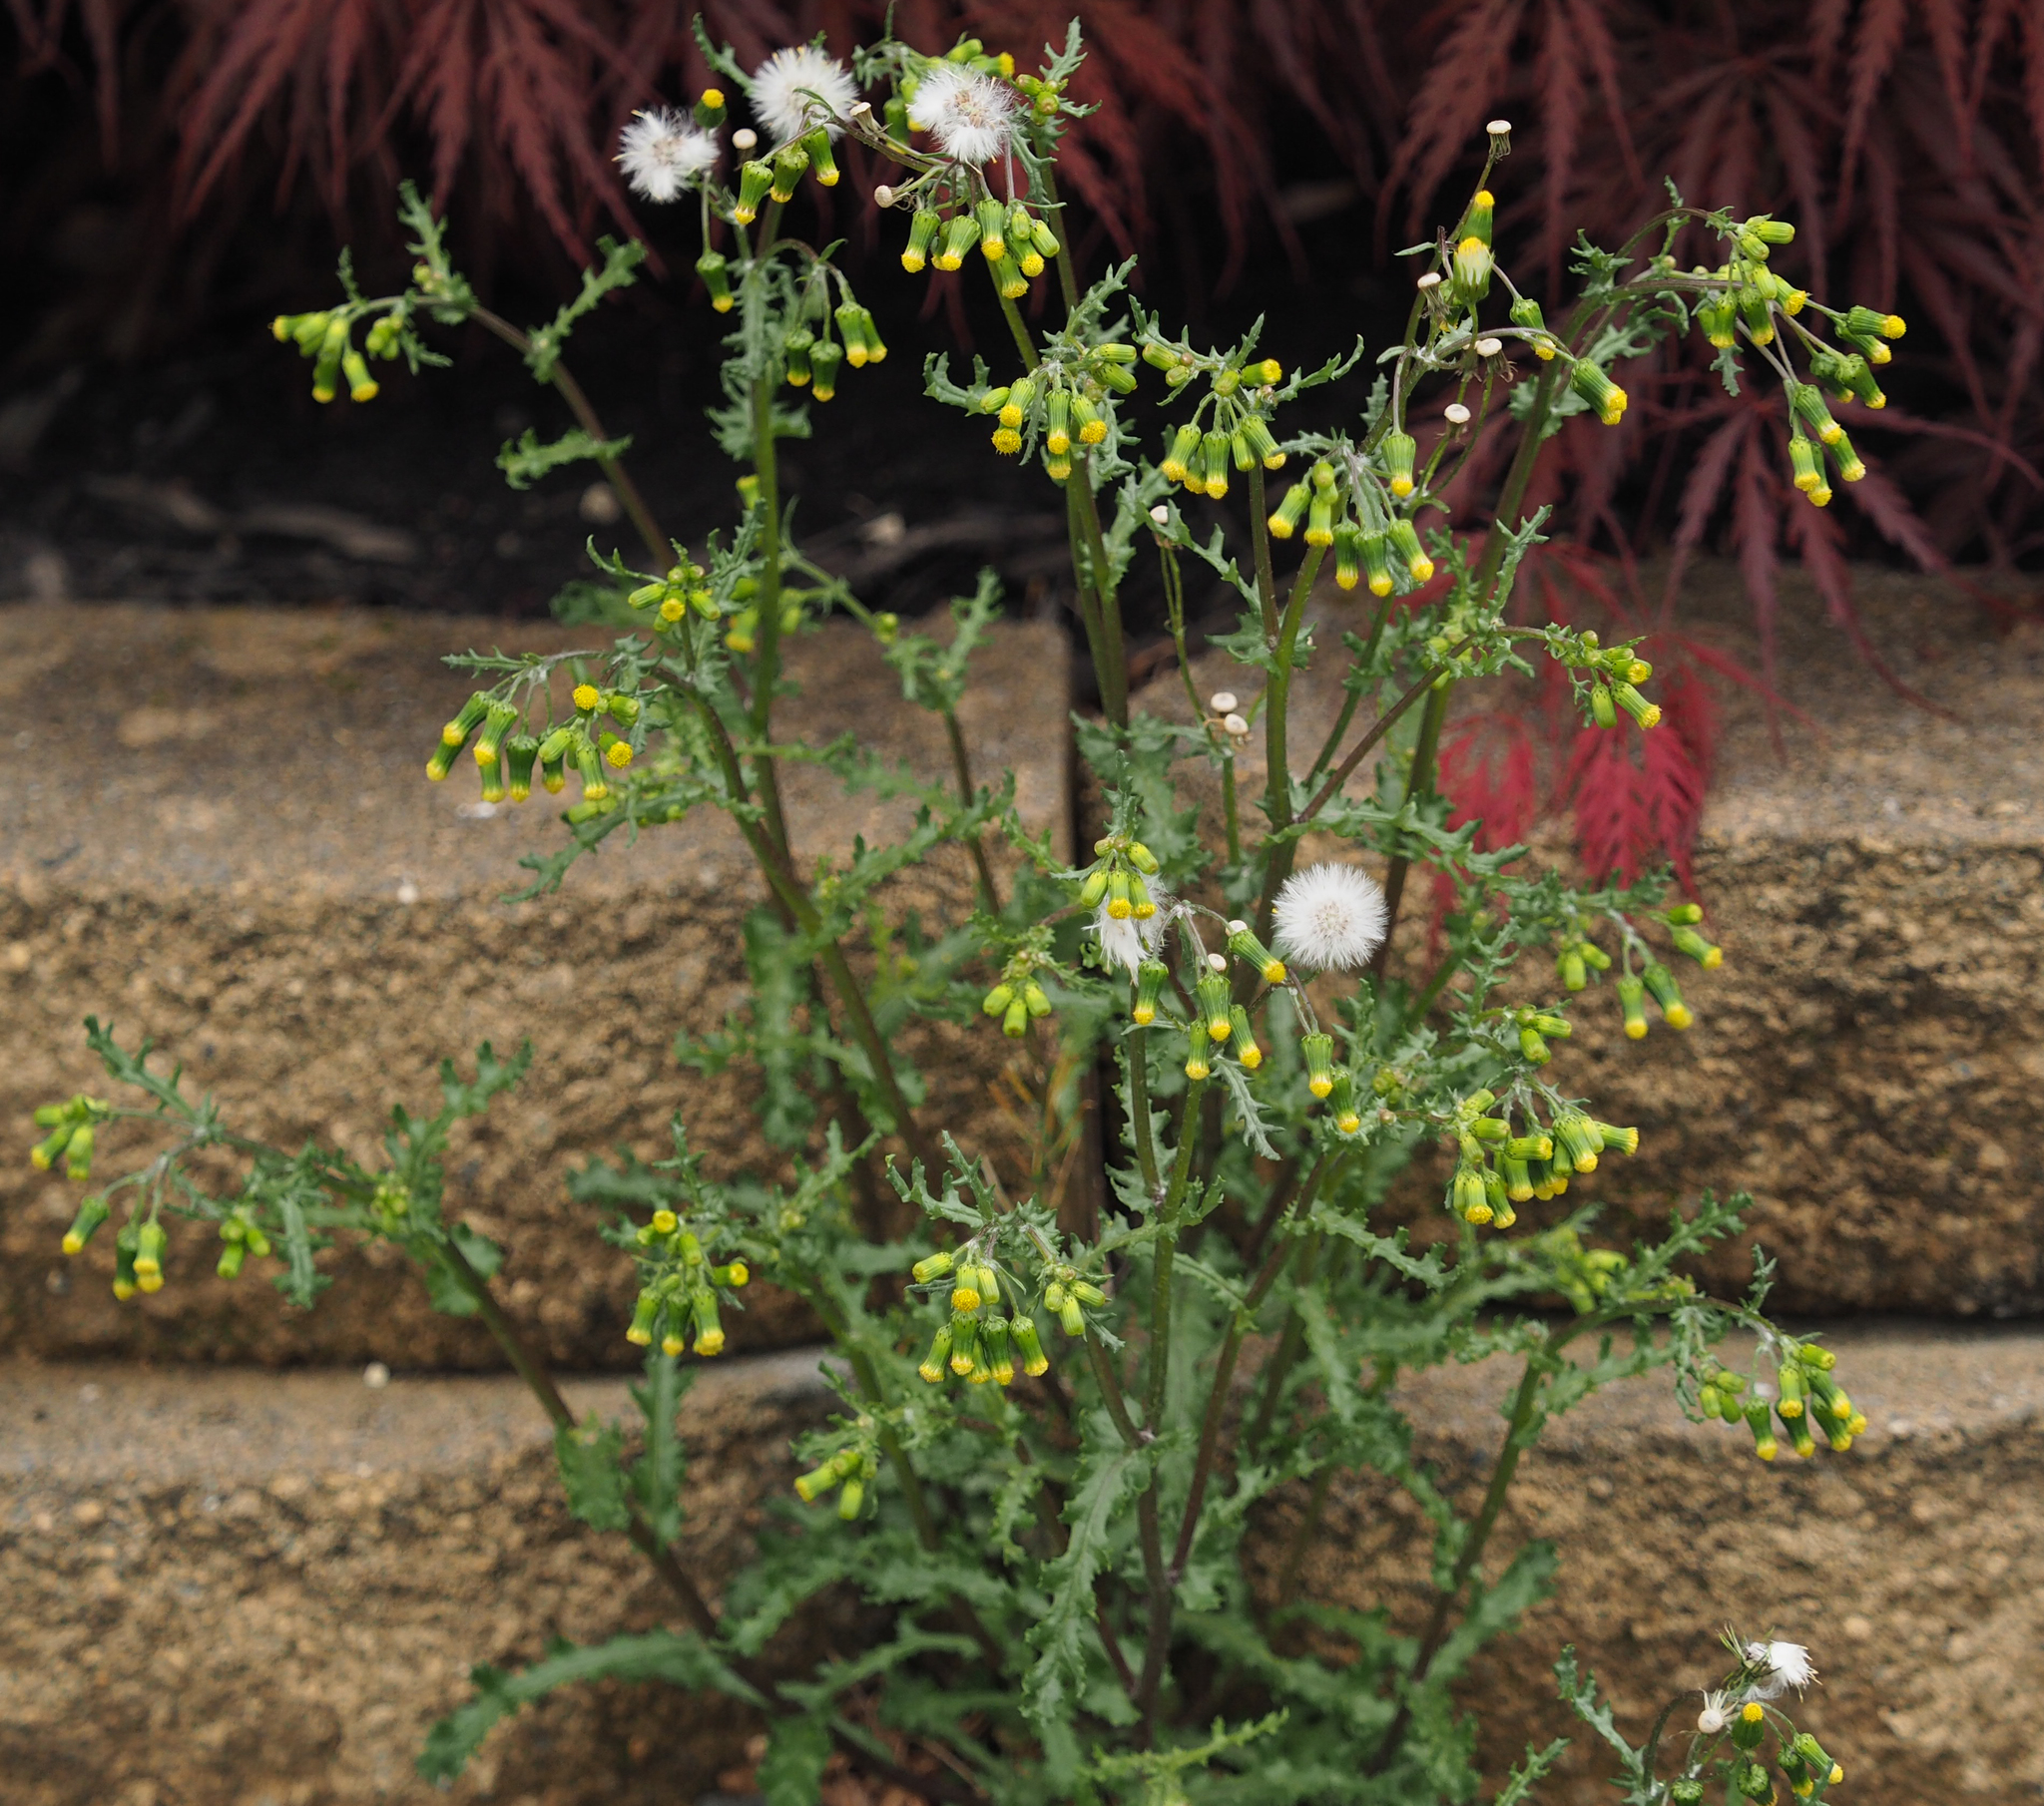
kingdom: Plantae
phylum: Tracheophyta
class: Magnoliopsida
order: Asterales
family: Asteraceae
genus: Senecio
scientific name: Senecio vulgaris
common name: Old-man-in-the-spring
